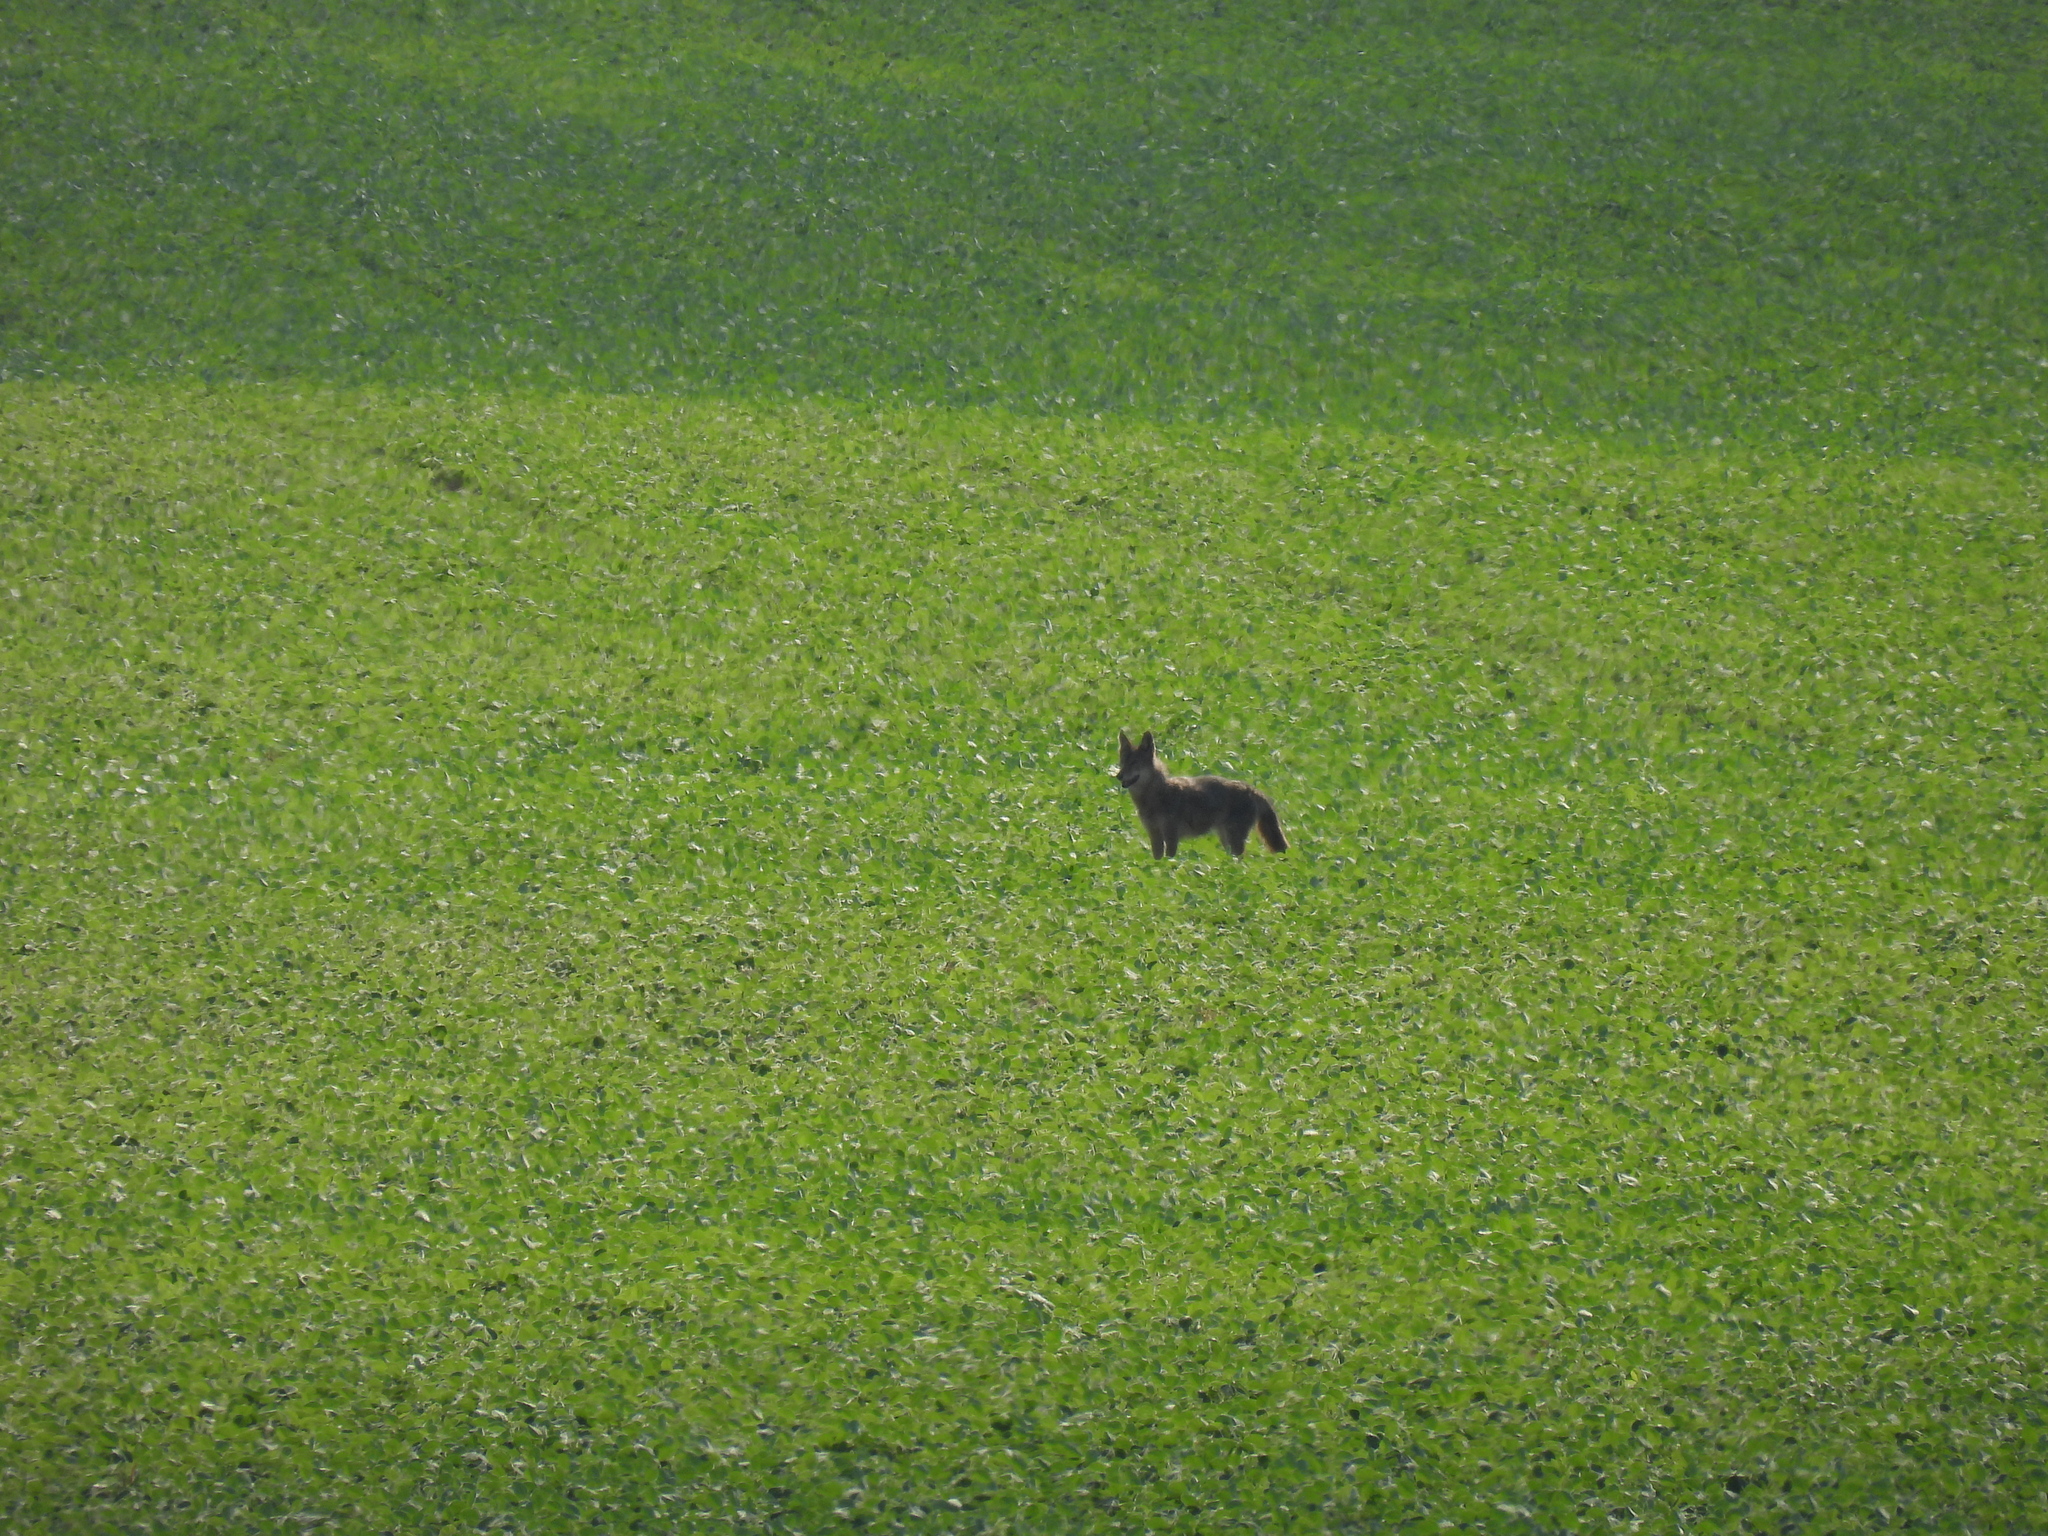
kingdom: Animalia
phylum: Chordata
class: Mammalia
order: Carnivora
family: Canidae
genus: Canis
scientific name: Canis latrans
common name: Coyote
